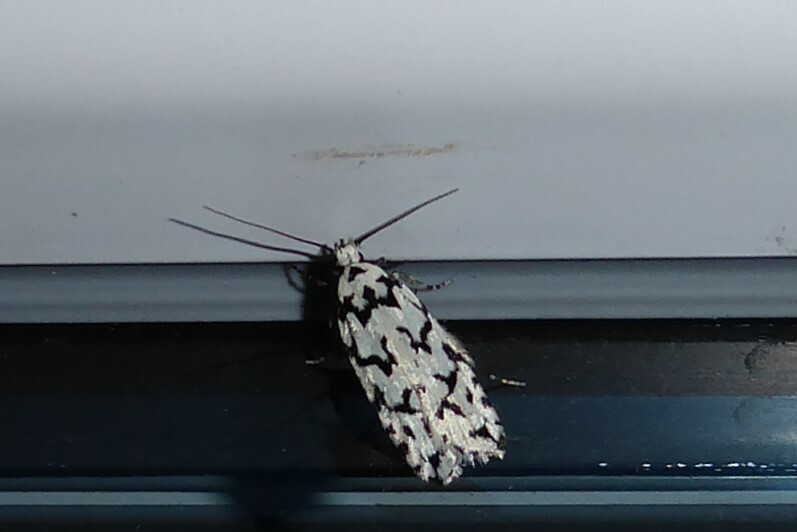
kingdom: Animalia
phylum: Arthropoda
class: Insecta
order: Lepidoptera
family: Oecophoridae
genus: Izatha
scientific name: Izatha katadiktya
